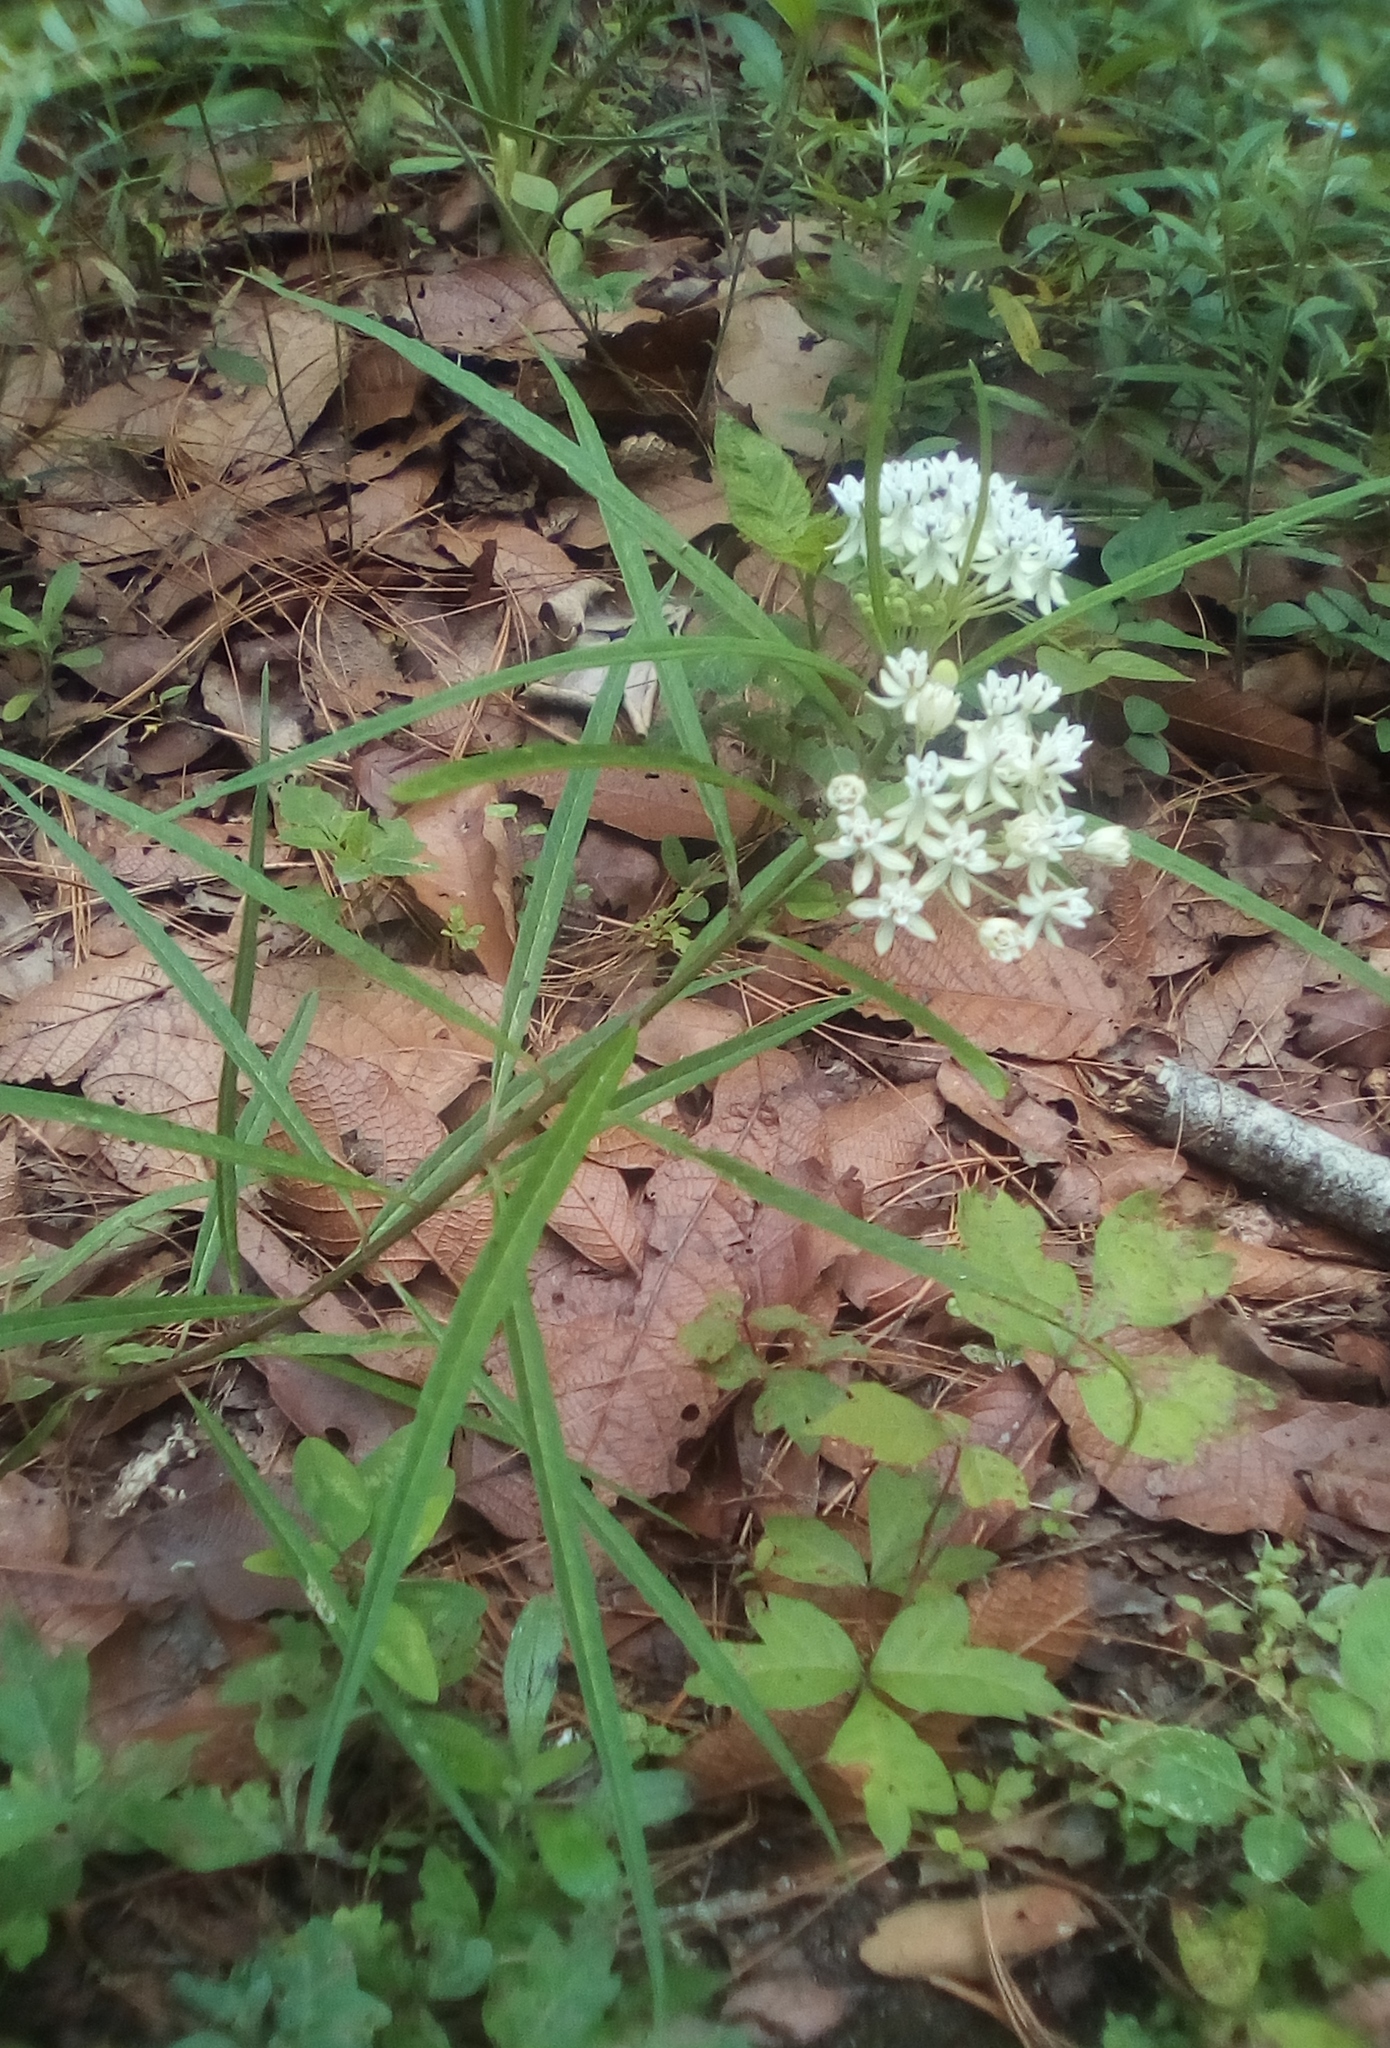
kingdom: Plantae
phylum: Tracheophyta
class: Magnoliopsida
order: Gentianales
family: Apocynaceae
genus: Asclepias
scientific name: Asclepias angustifolia
